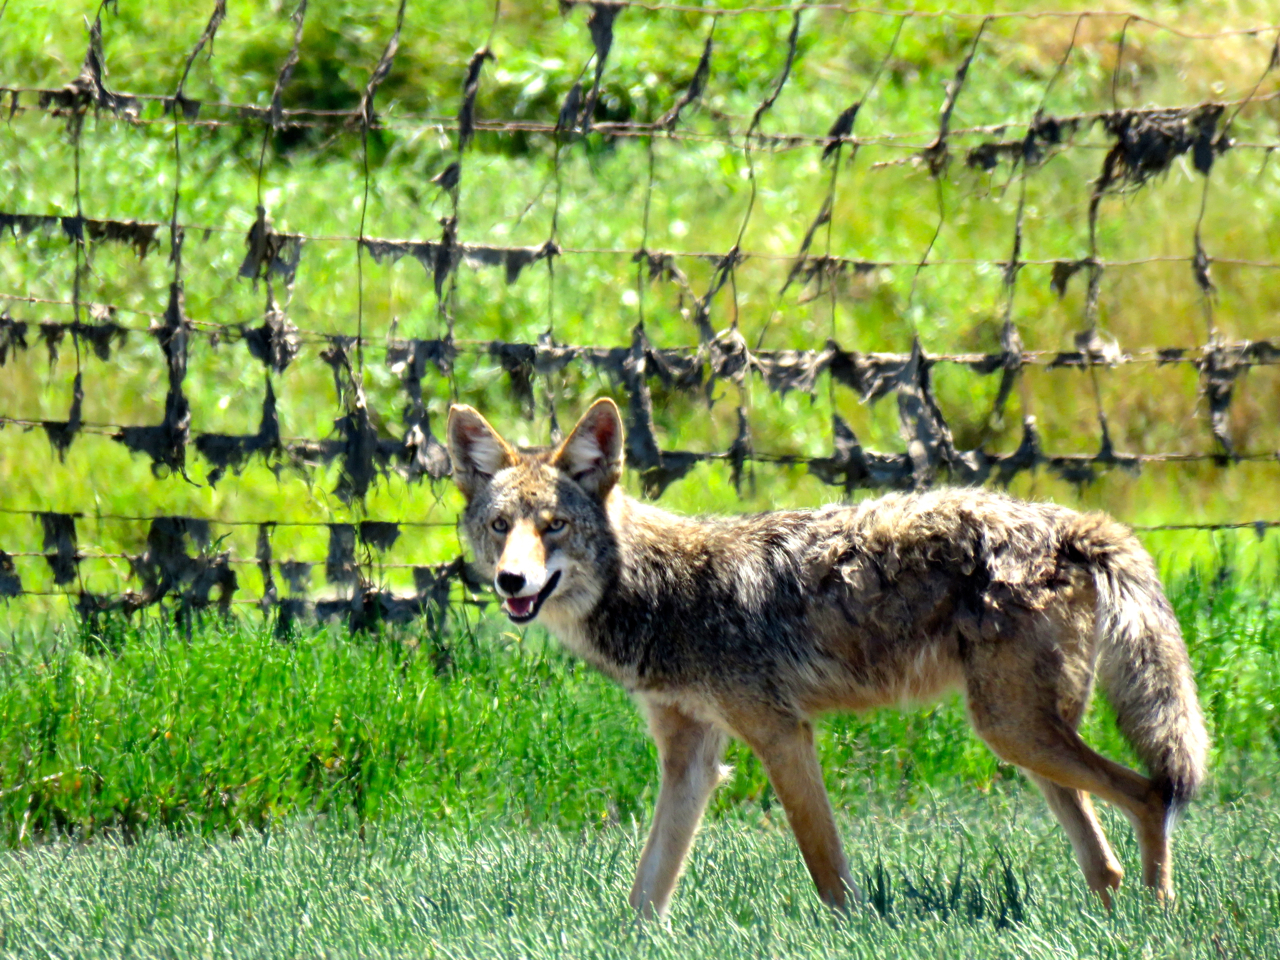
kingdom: Animalia
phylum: Chordata
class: Mammalia
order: Carnivora
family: Canidae
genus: Canis
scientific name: Canis latrans
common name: Coyote
